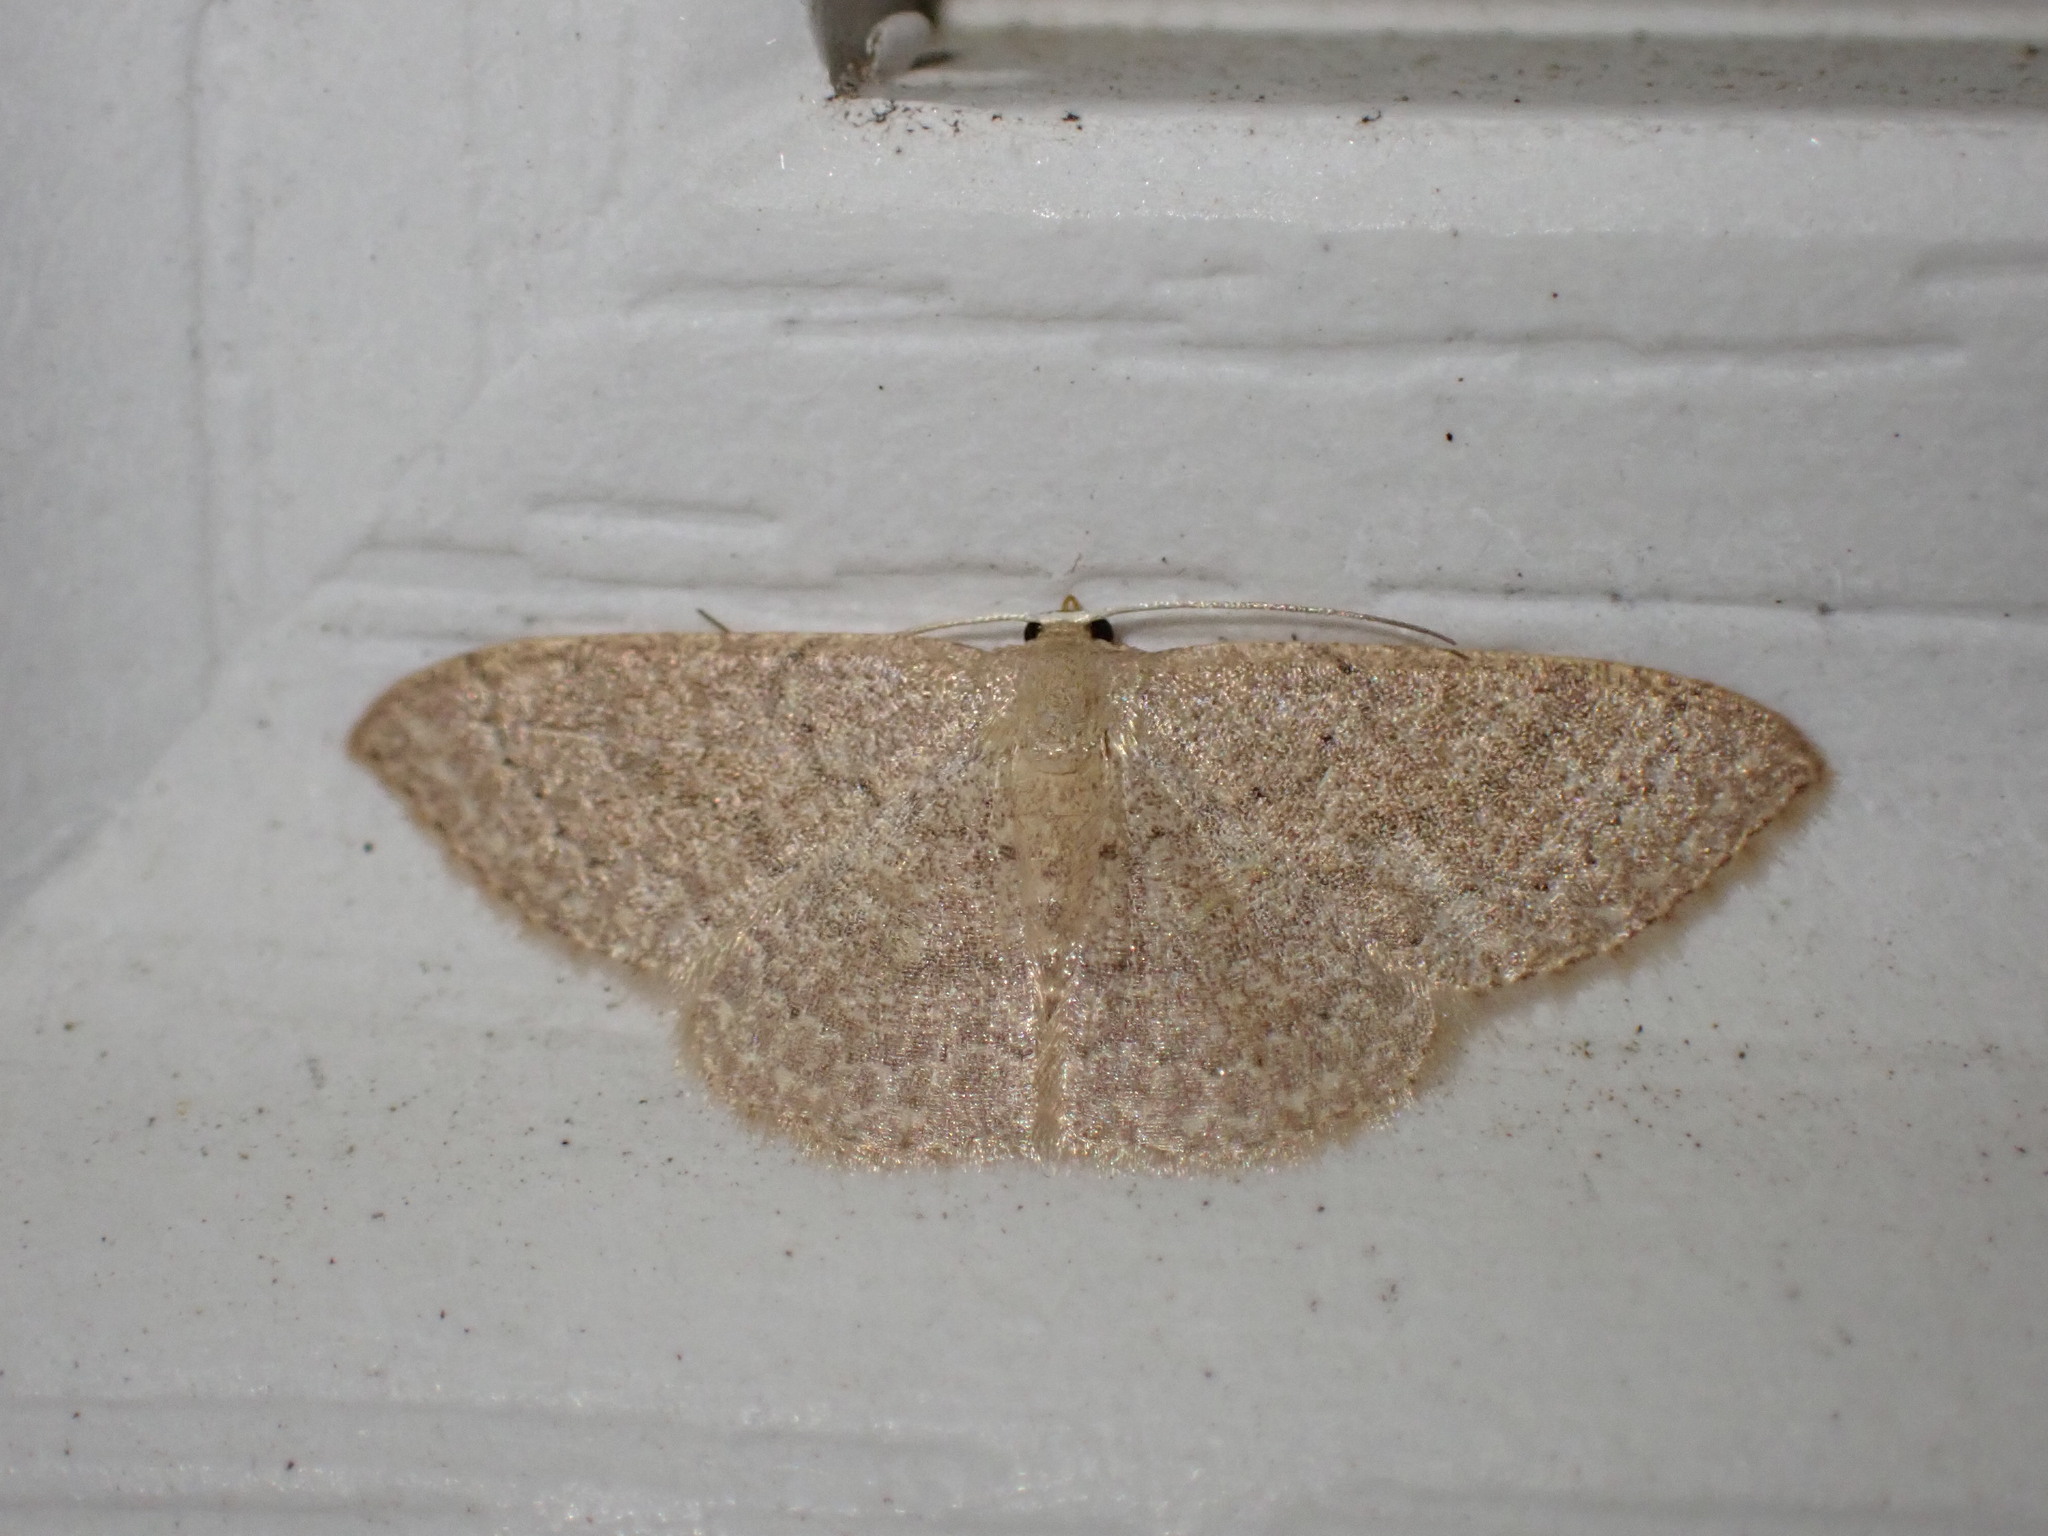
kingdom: Animalia
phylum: Arthropoda
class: Insecta
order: Lepidoptera
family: Geometridae
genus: Pleuroprucha
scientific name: Pleuroprucha insulsaria
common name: Common tan wave
